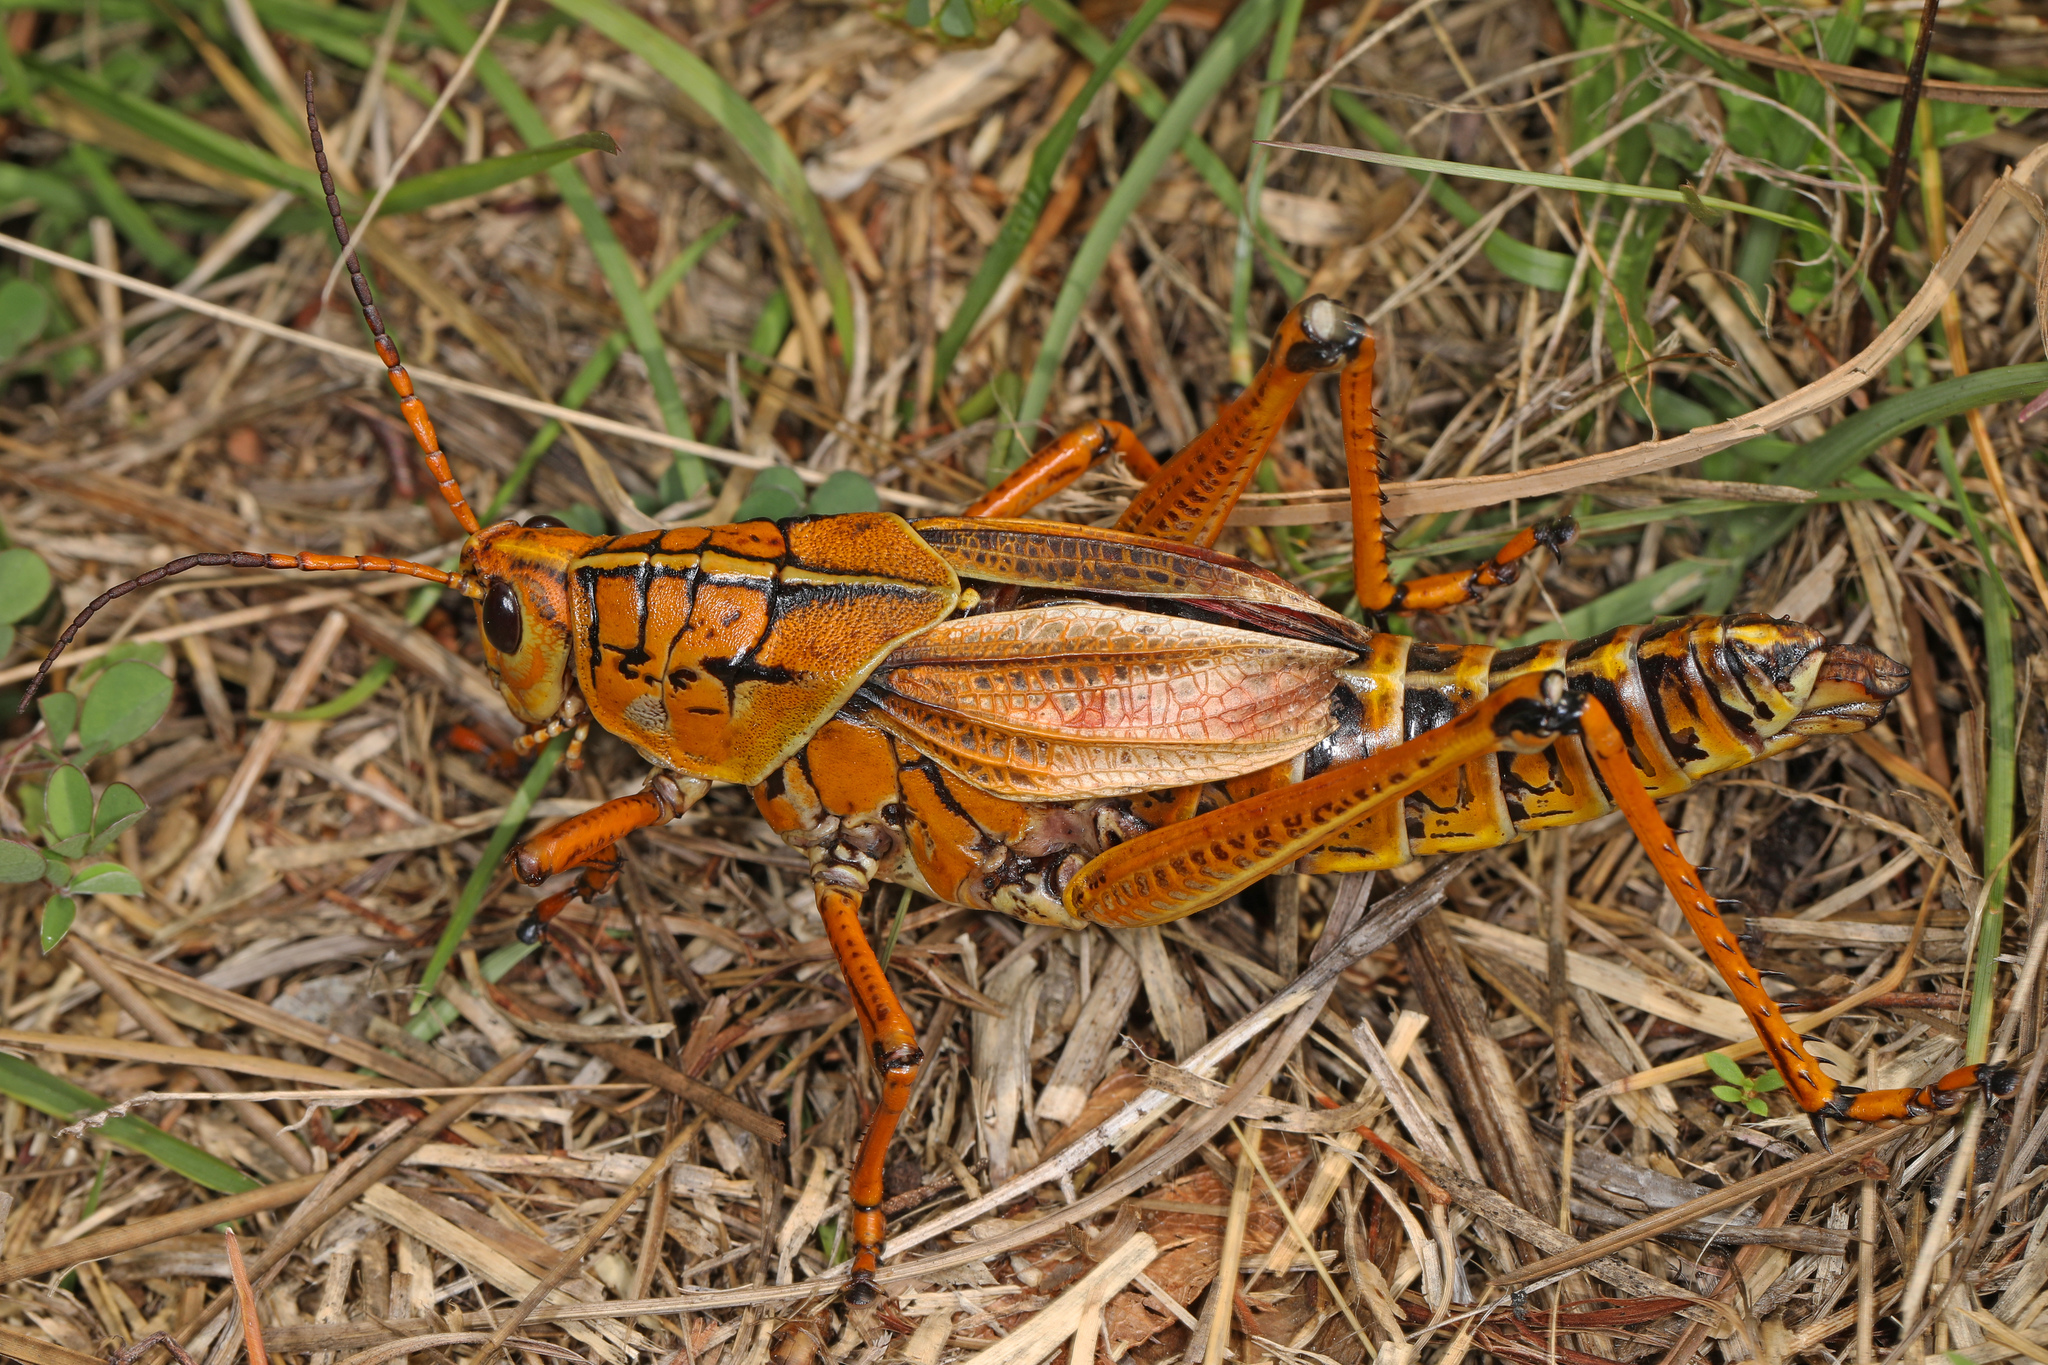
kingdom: Animalia
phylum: Arthropoda
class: Insecta
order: Orthoptera
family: Romaleidae
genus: Romalea
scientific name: Romalea microptera
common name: Eastern lubber grasshopper
